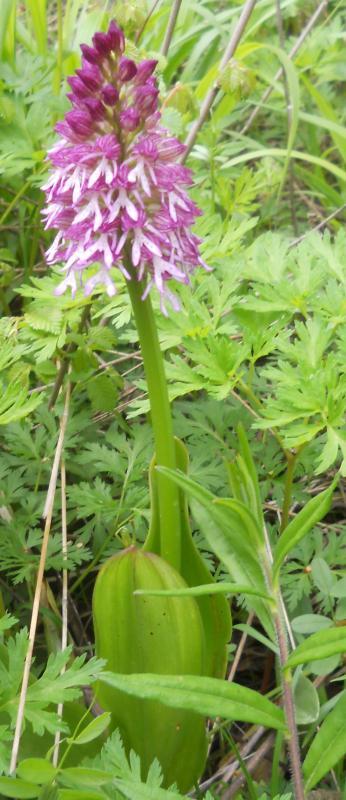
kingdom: Plantae
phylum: Tracheophyta
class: Liliopsida
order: Asparagales
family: Orchidaceae
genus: Orchis
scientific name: Orchis hybrida
